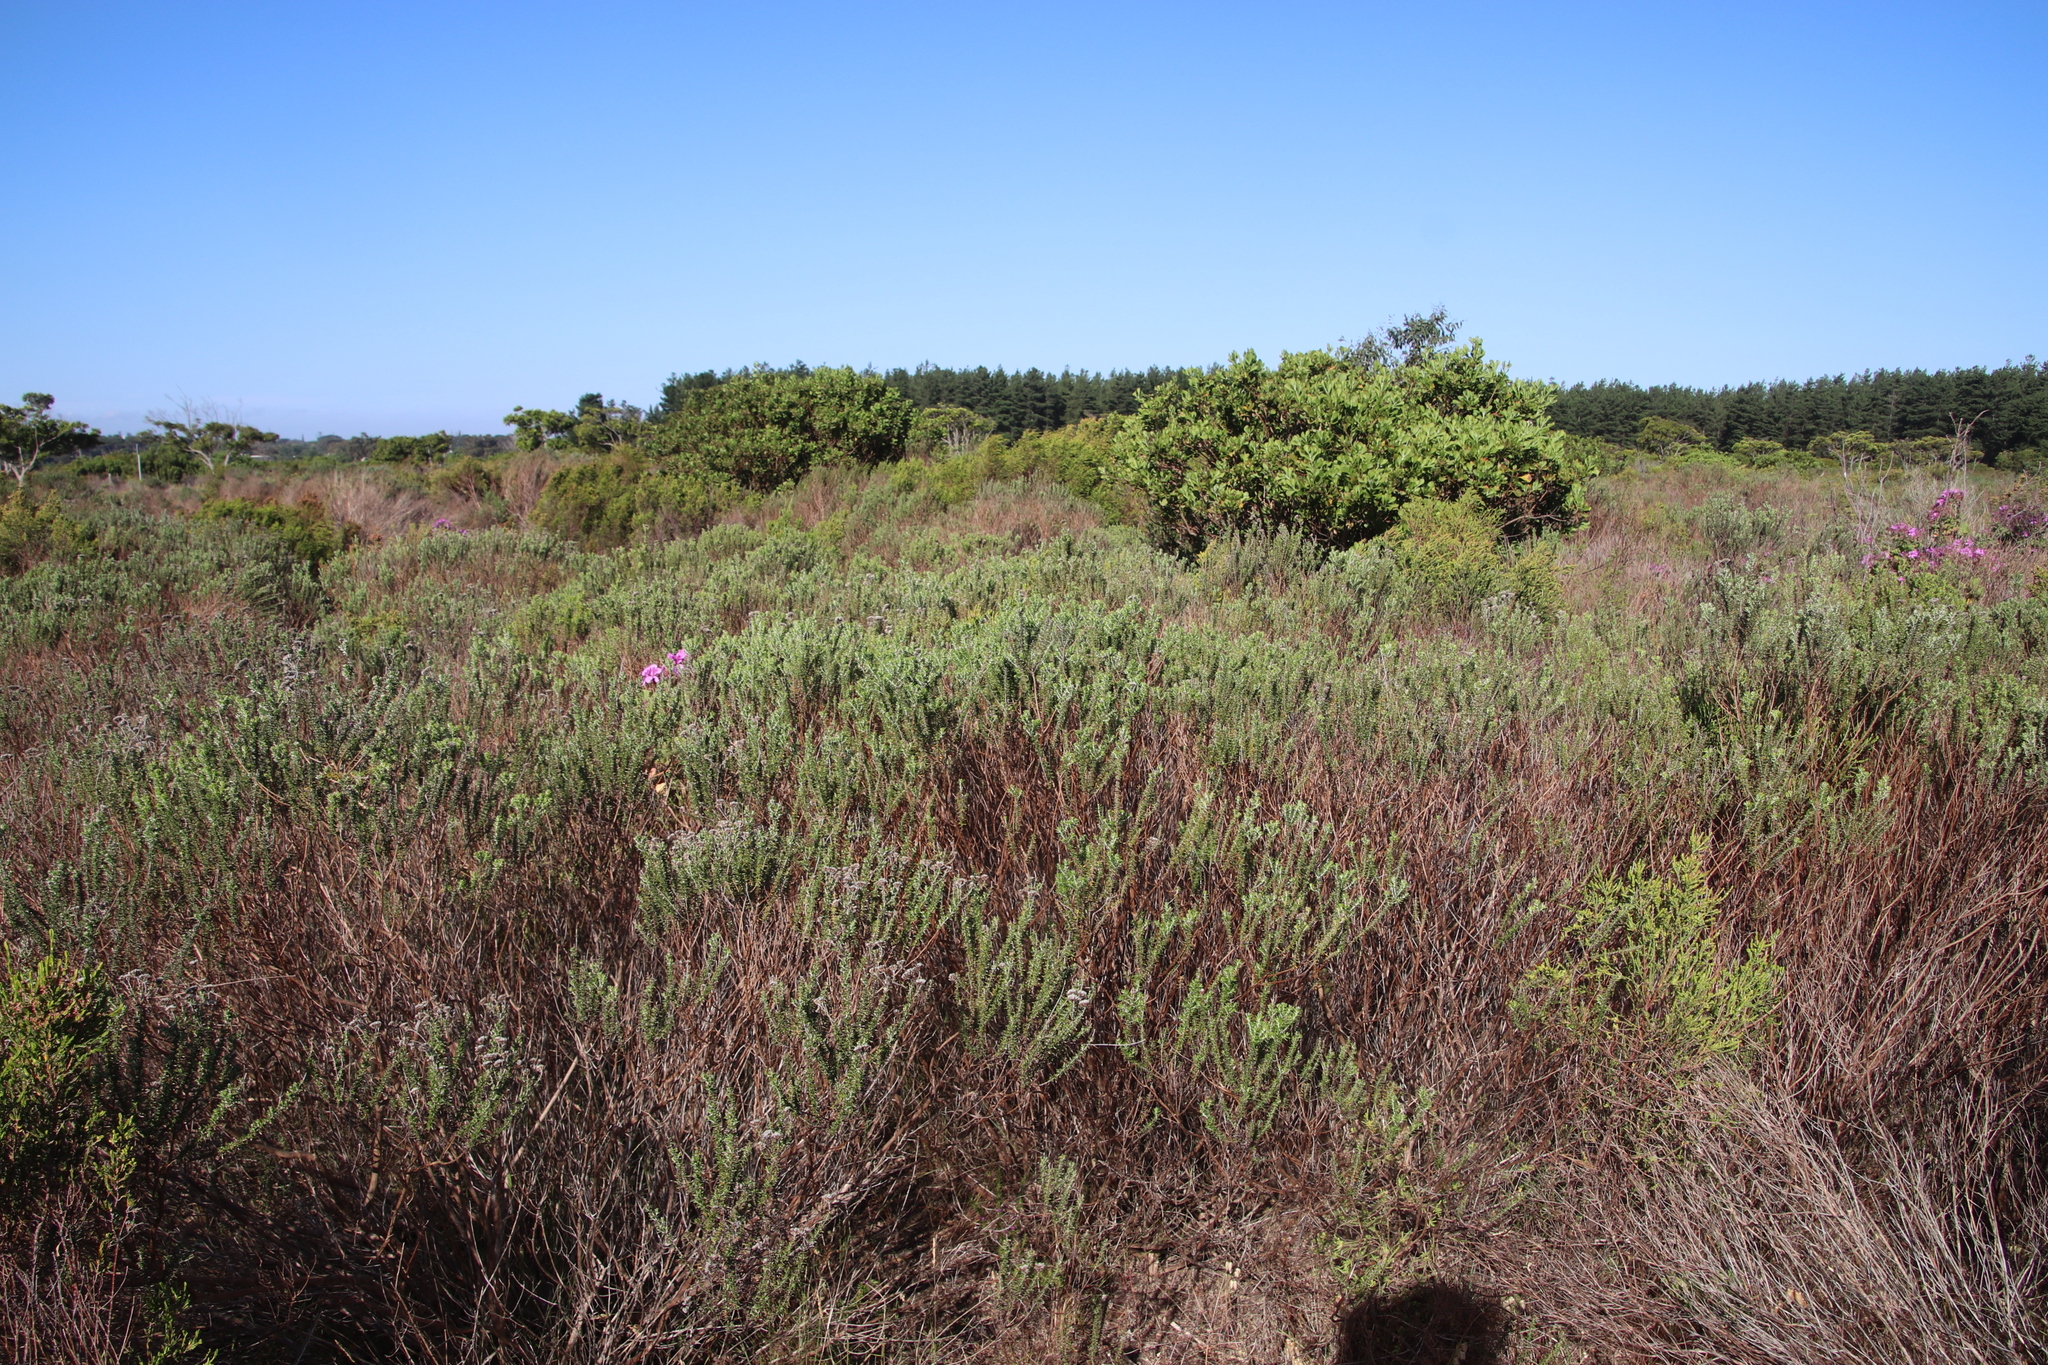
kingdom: Plantae
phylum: Tracheophyta
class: Magnoliopsida
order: Asterales
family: Asteraceae
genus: Metalasia
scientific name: Metalasia densa
